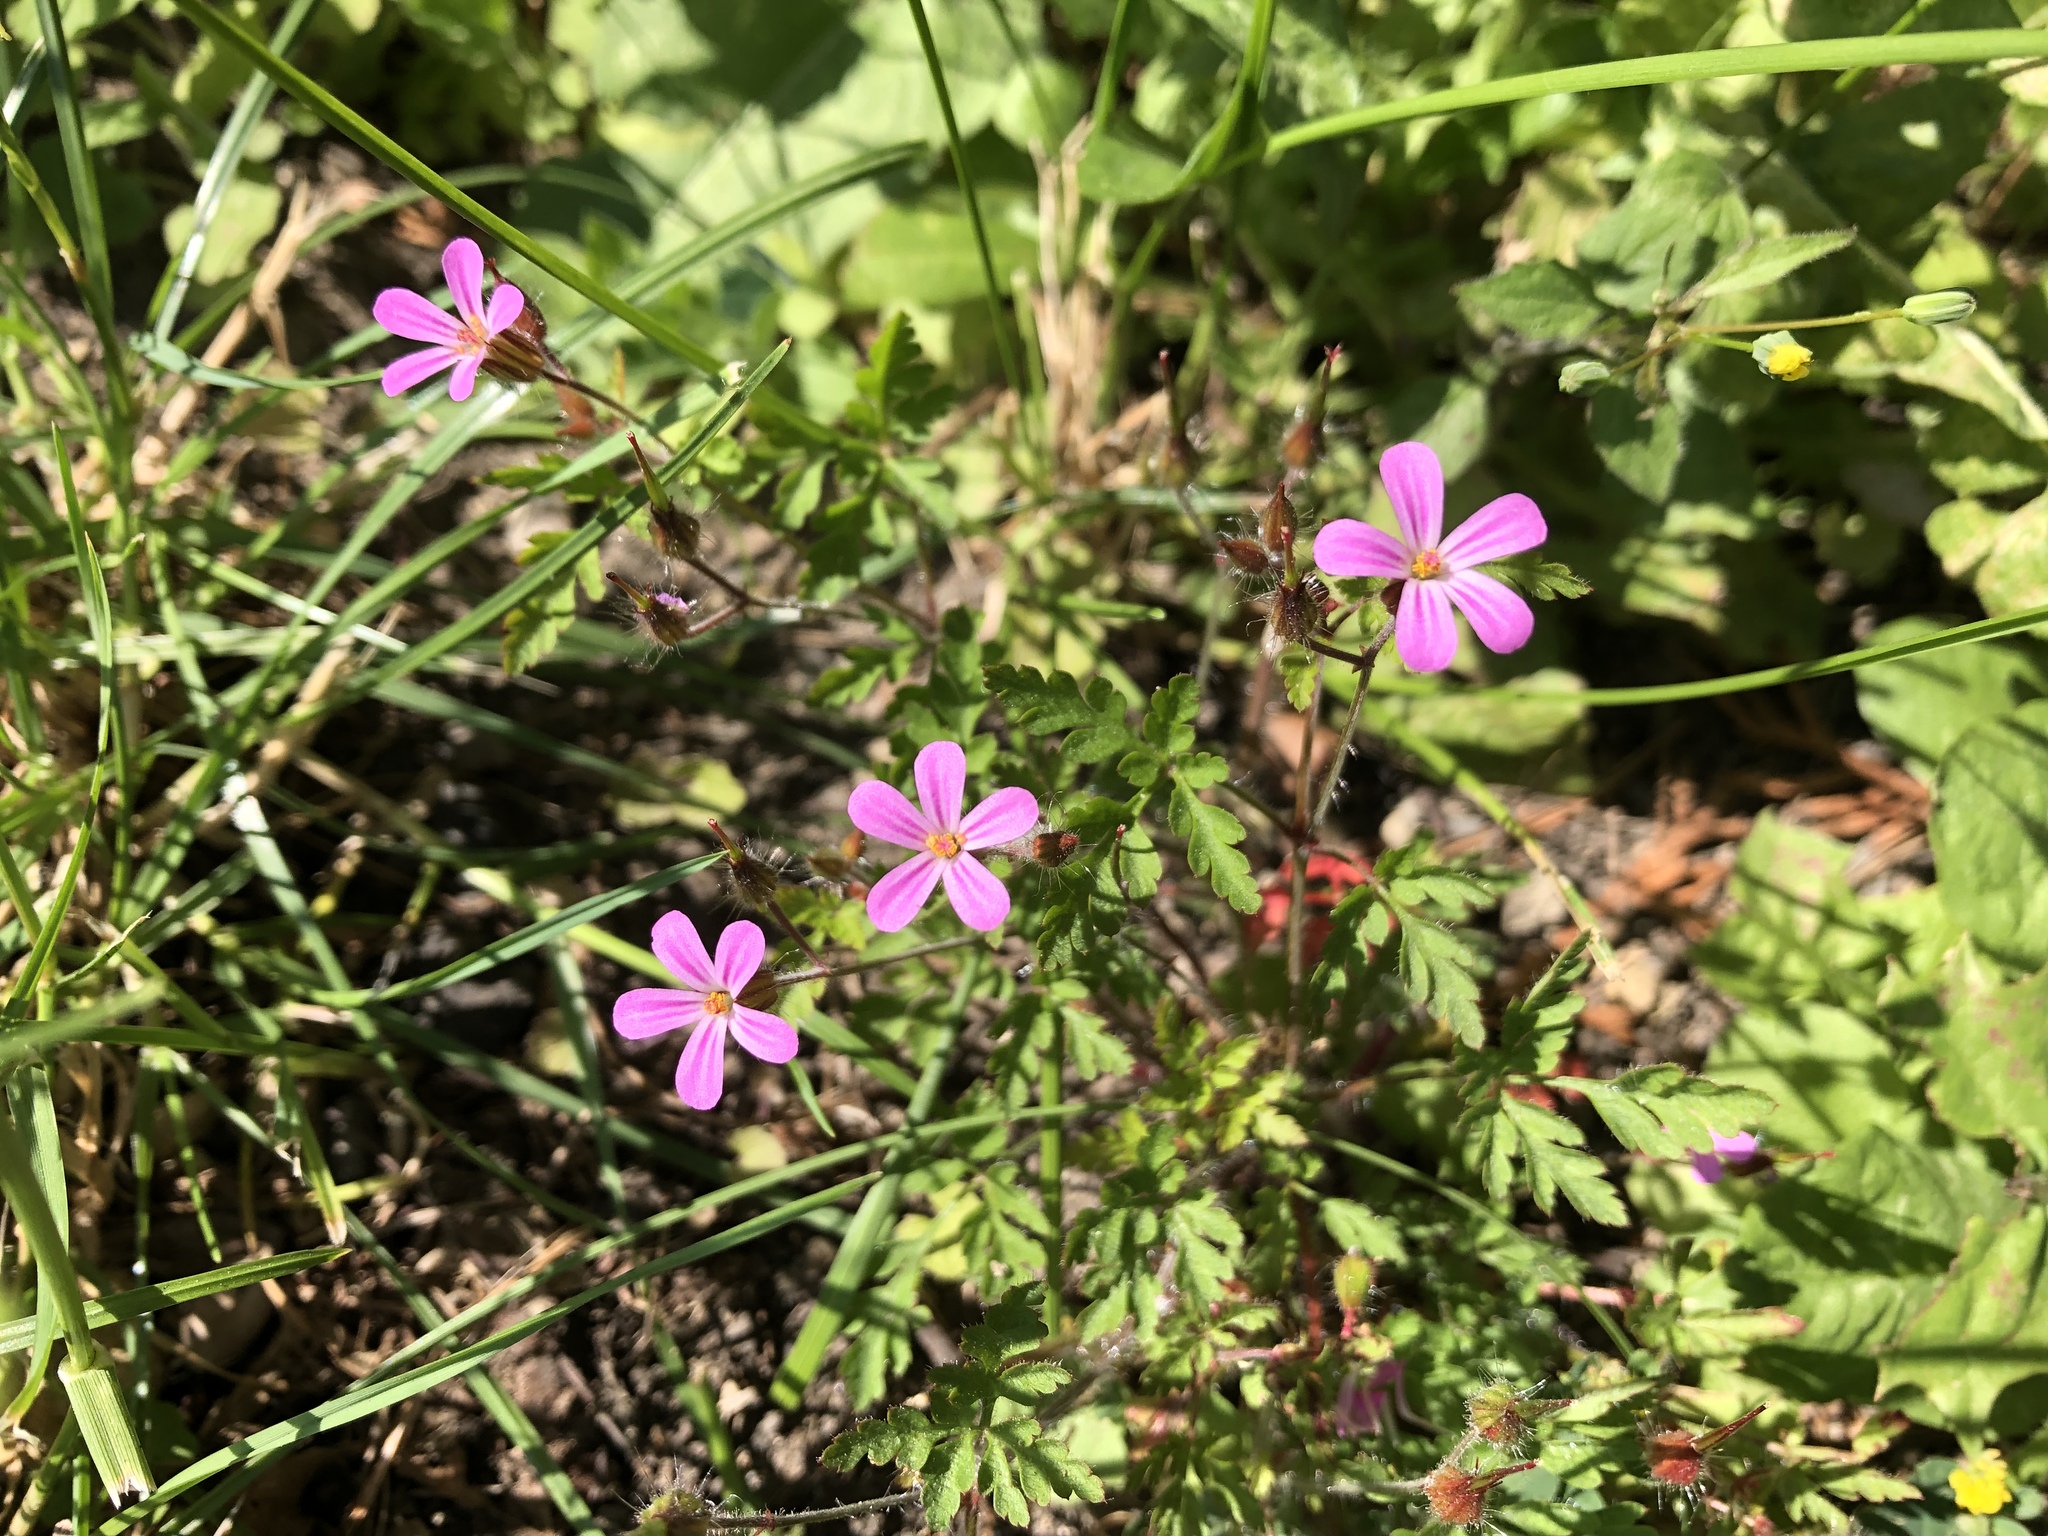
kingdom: Plantae
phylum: Tracheophyta
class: Magnoliopsida
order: Geraniales
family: Geraniaceae
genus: Geranium
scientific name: Geranium robertianum
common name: Herb-robert
